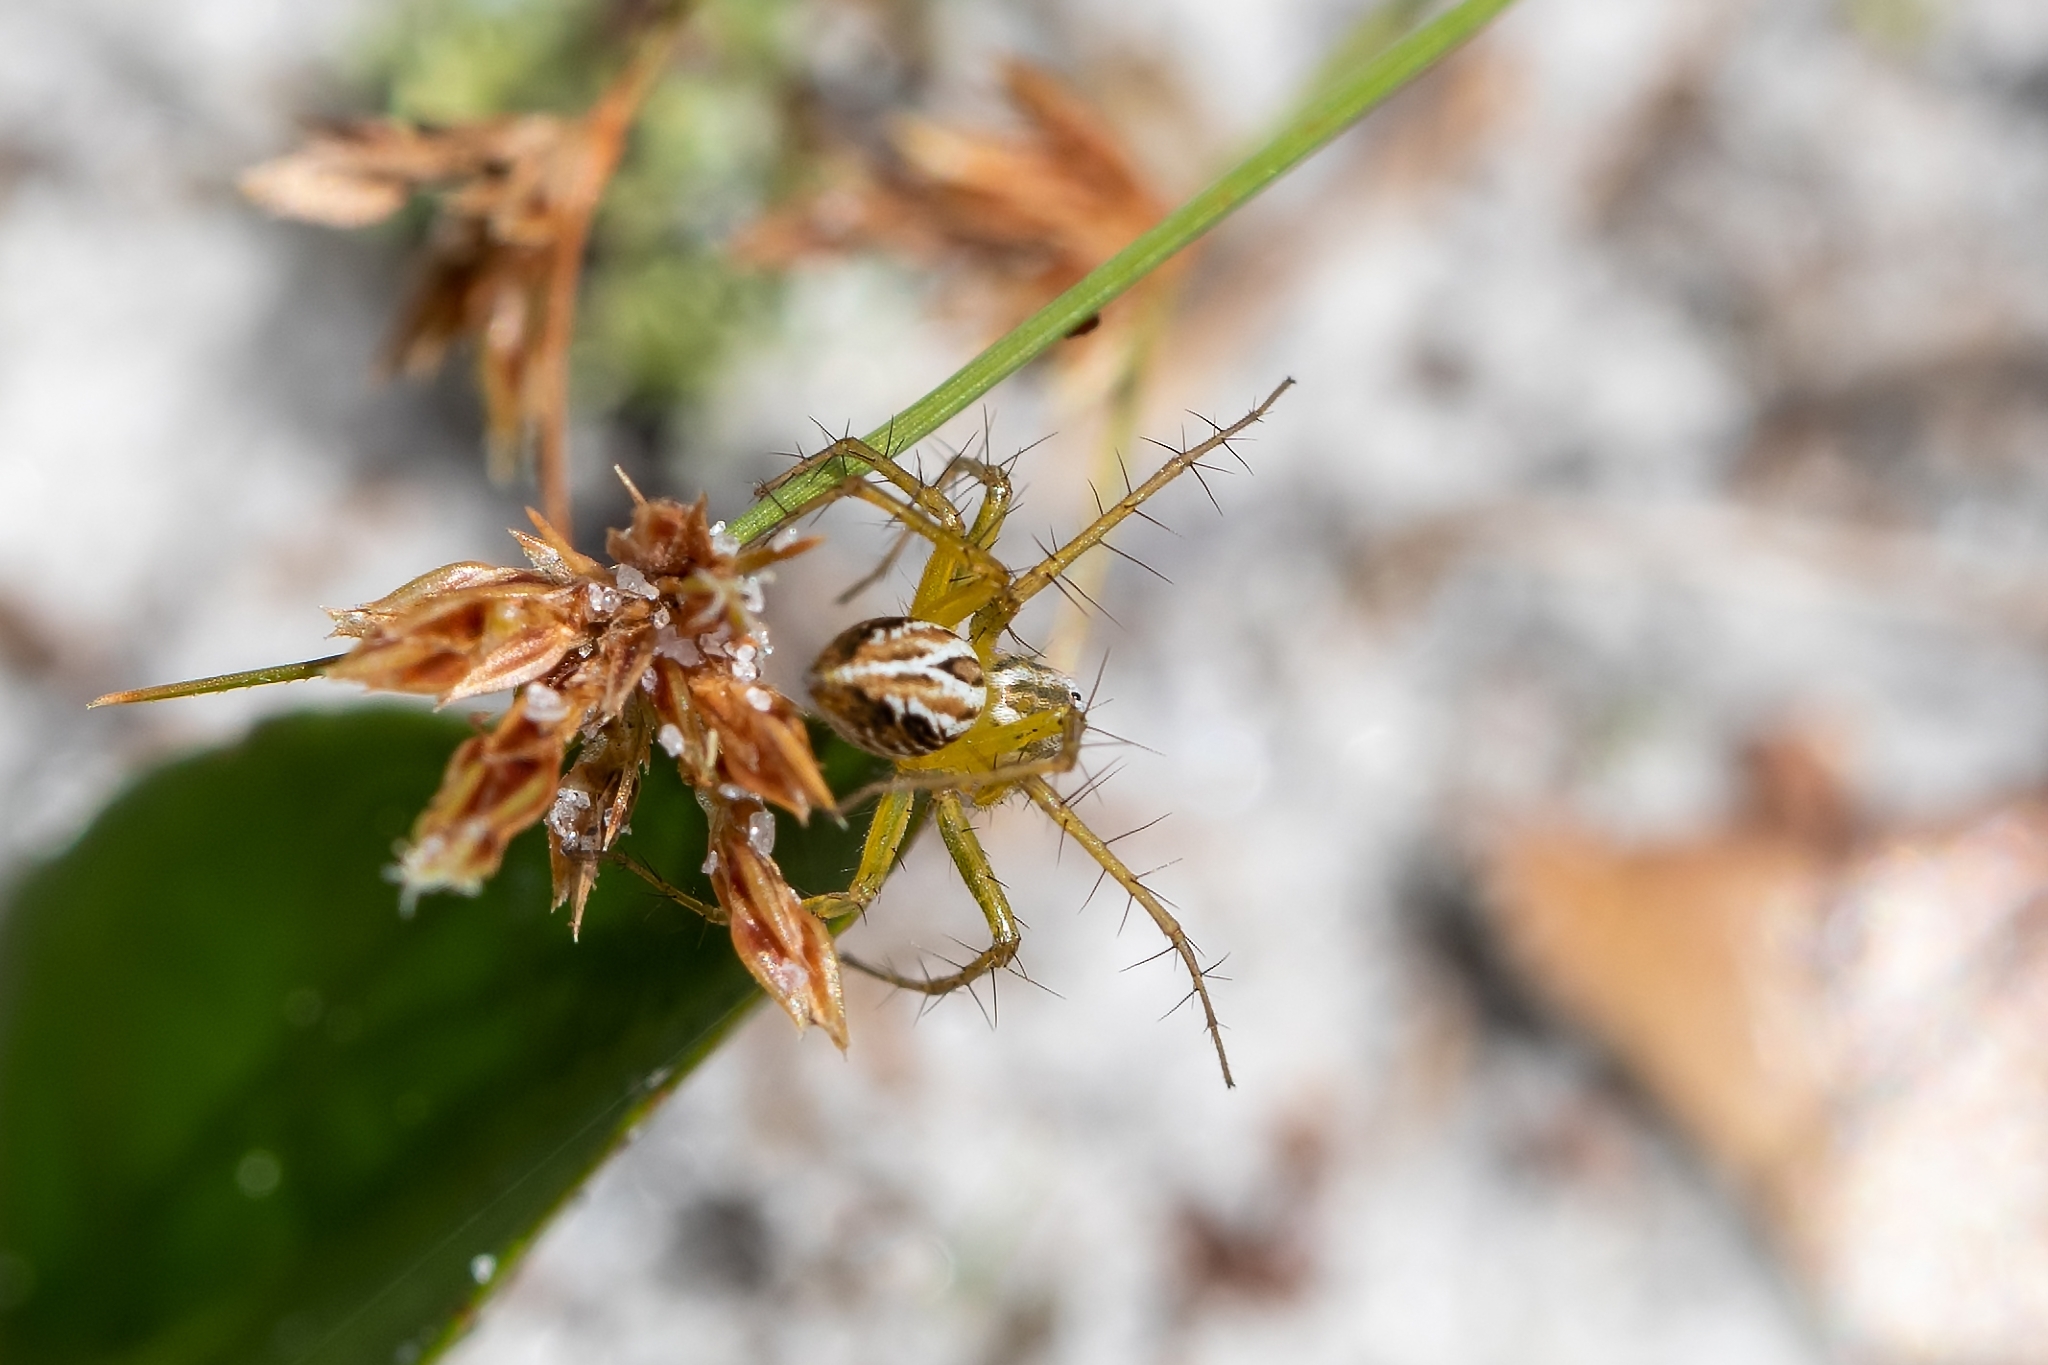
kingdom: Animalia
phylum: Arthropoda
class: Arachnida
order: Araneae
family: Oxyopidae
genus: Oxyopes
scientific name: Oxyopes salticus
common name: Lynx spiders
